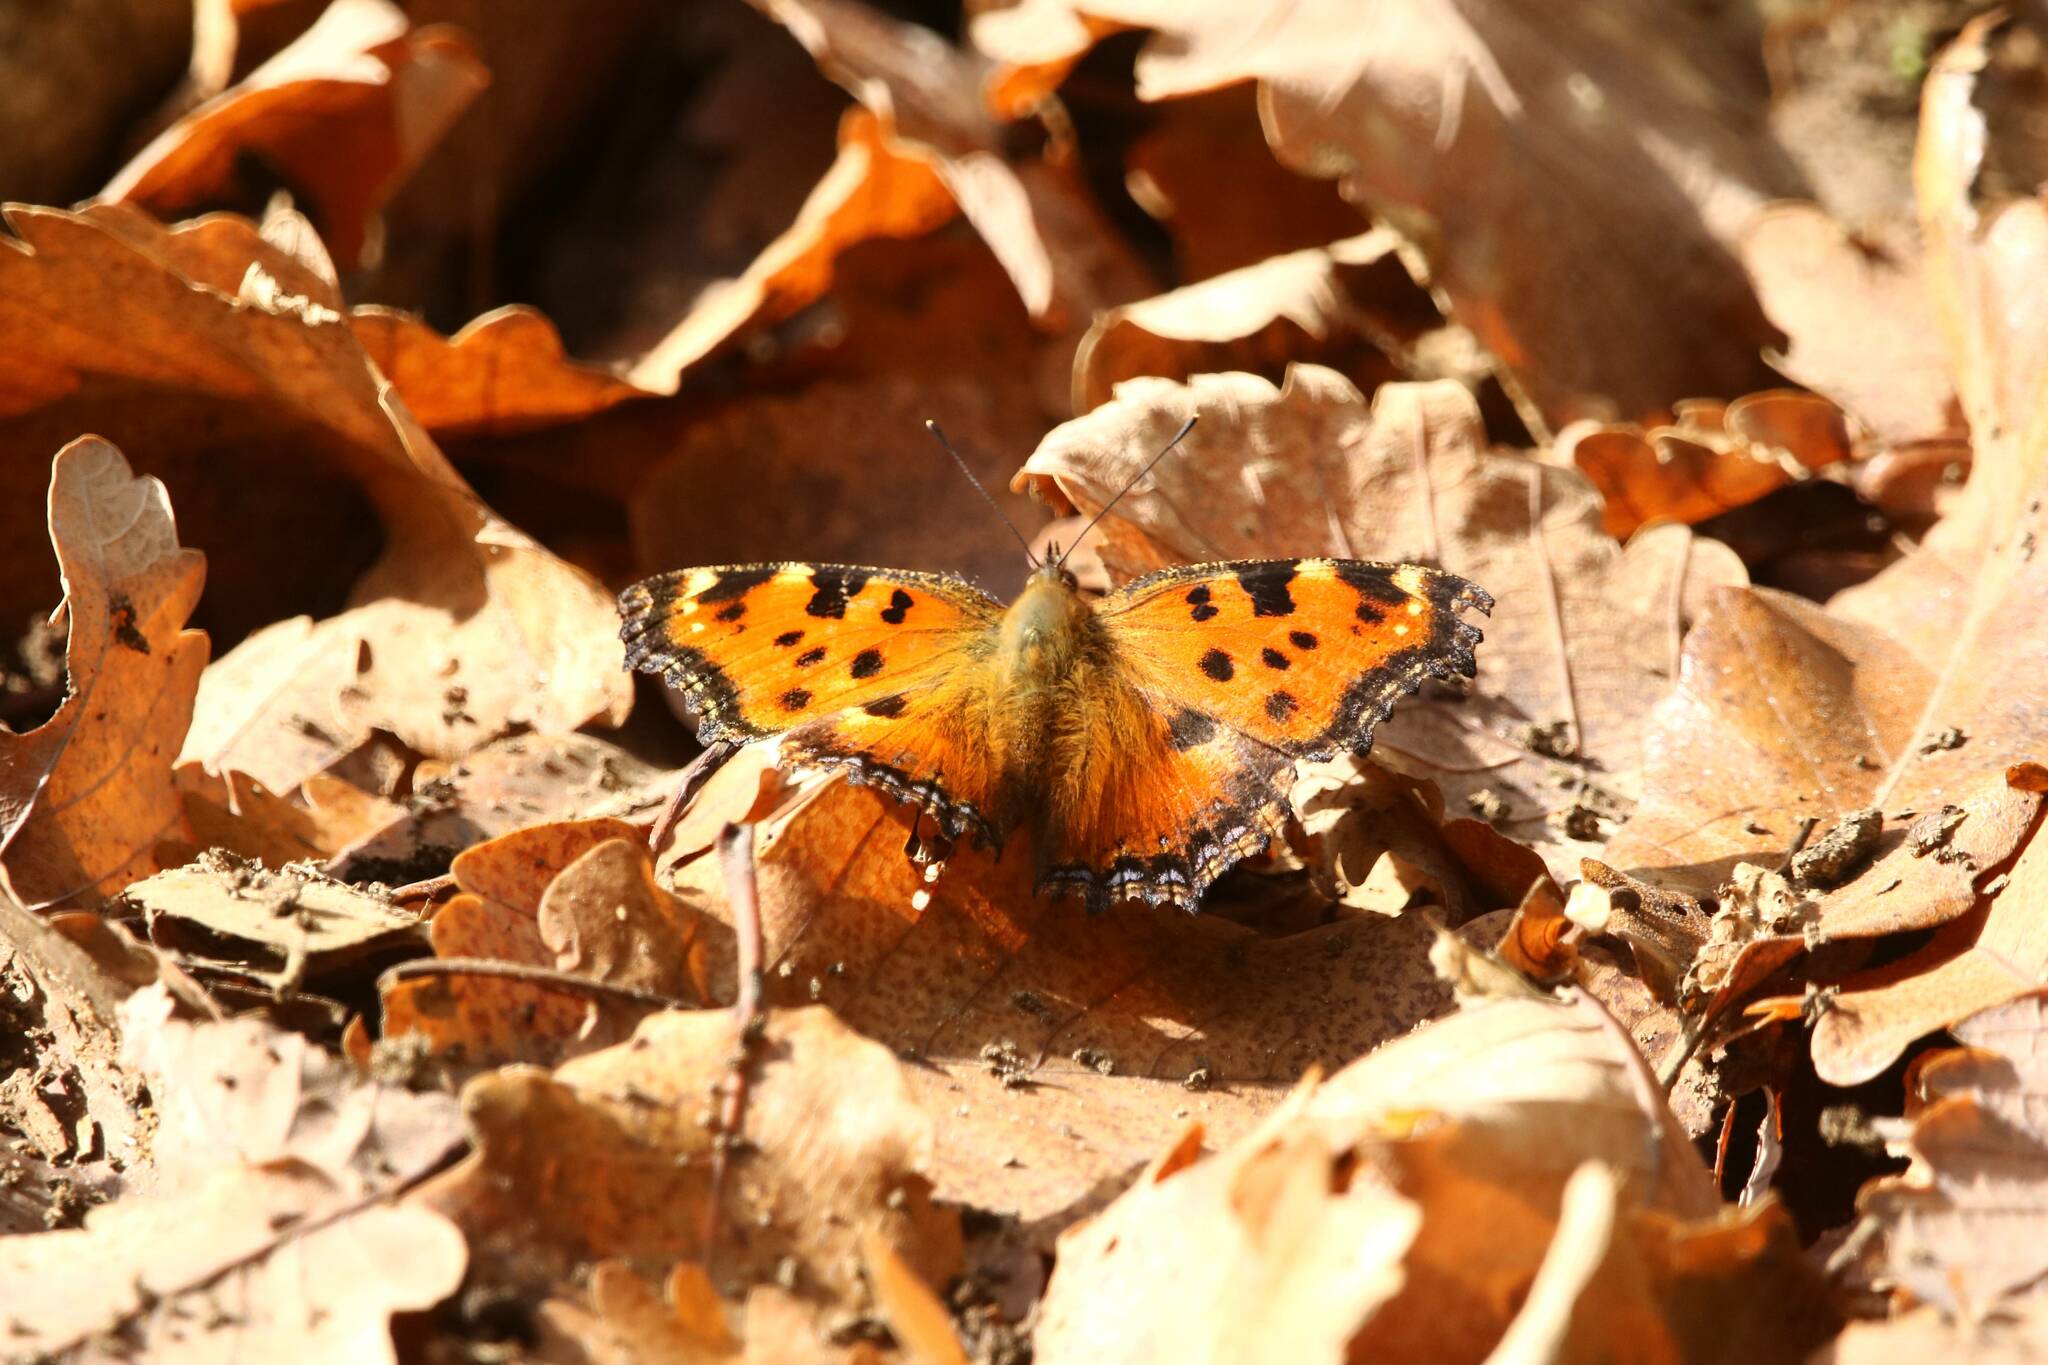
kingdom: Animalia
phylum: Arthropoda
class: Insecta
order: Lepidoptera
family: Nymphalidae
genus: Nymphalis
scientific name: Nymphalis polychloros
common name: Large tortoiseshell
